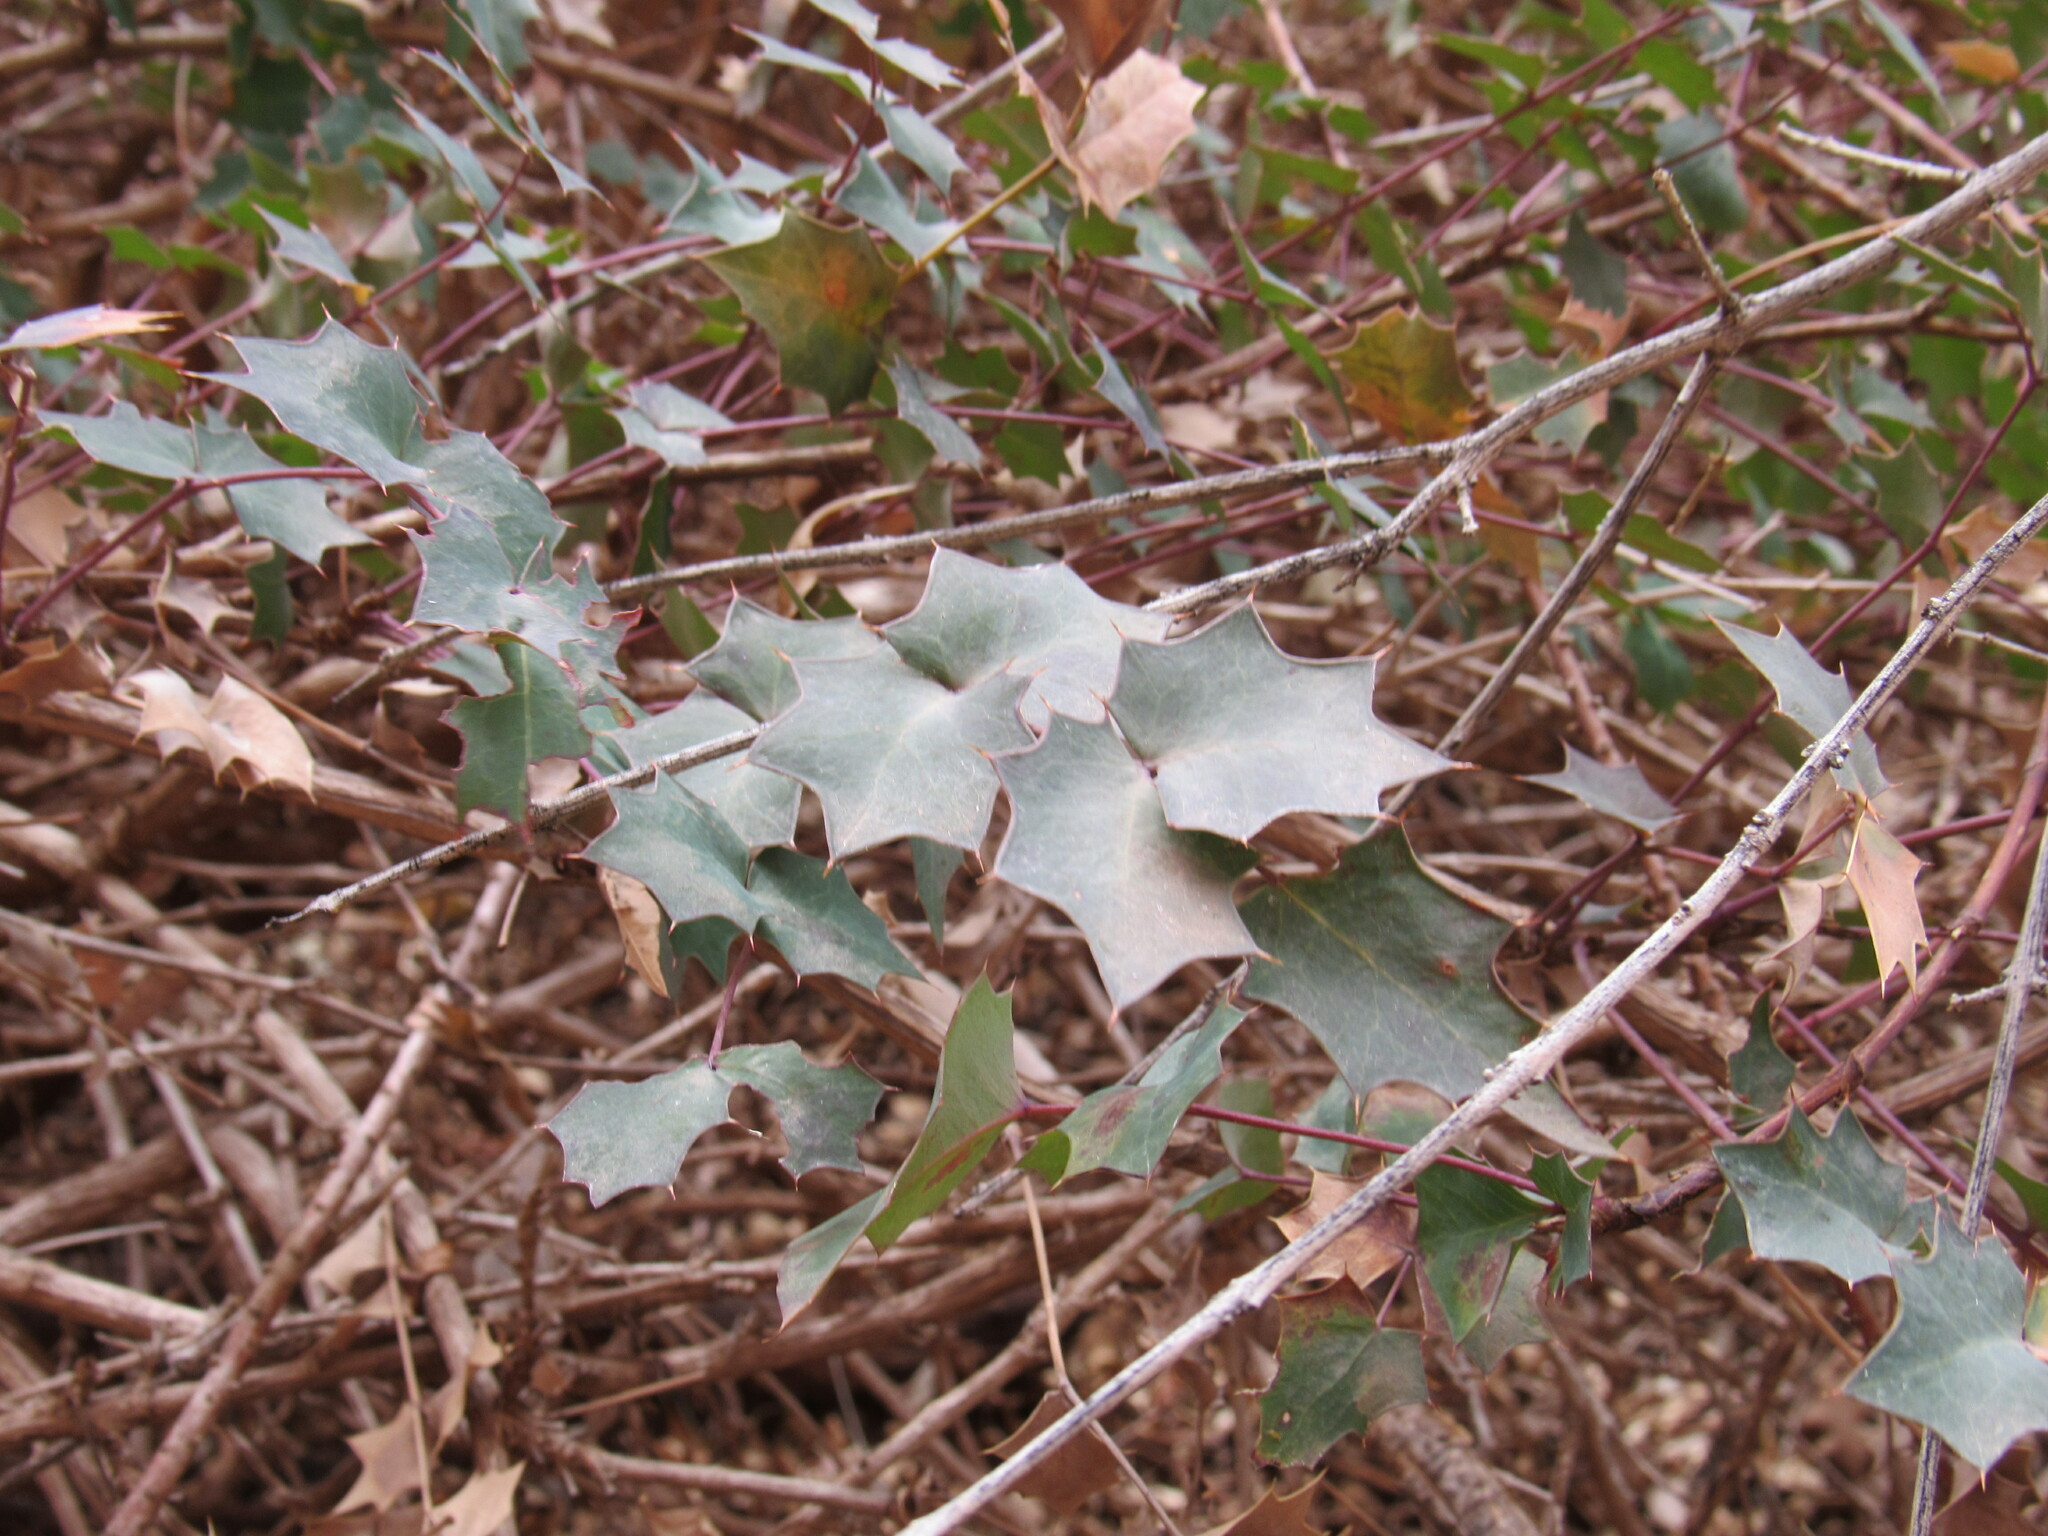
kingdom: Plantae
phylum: Tracheophyta
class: Magnoliopsida
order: Ranunculales
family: Berberidaceae
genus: Alloberberis
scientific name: Alloberberis fremontii
